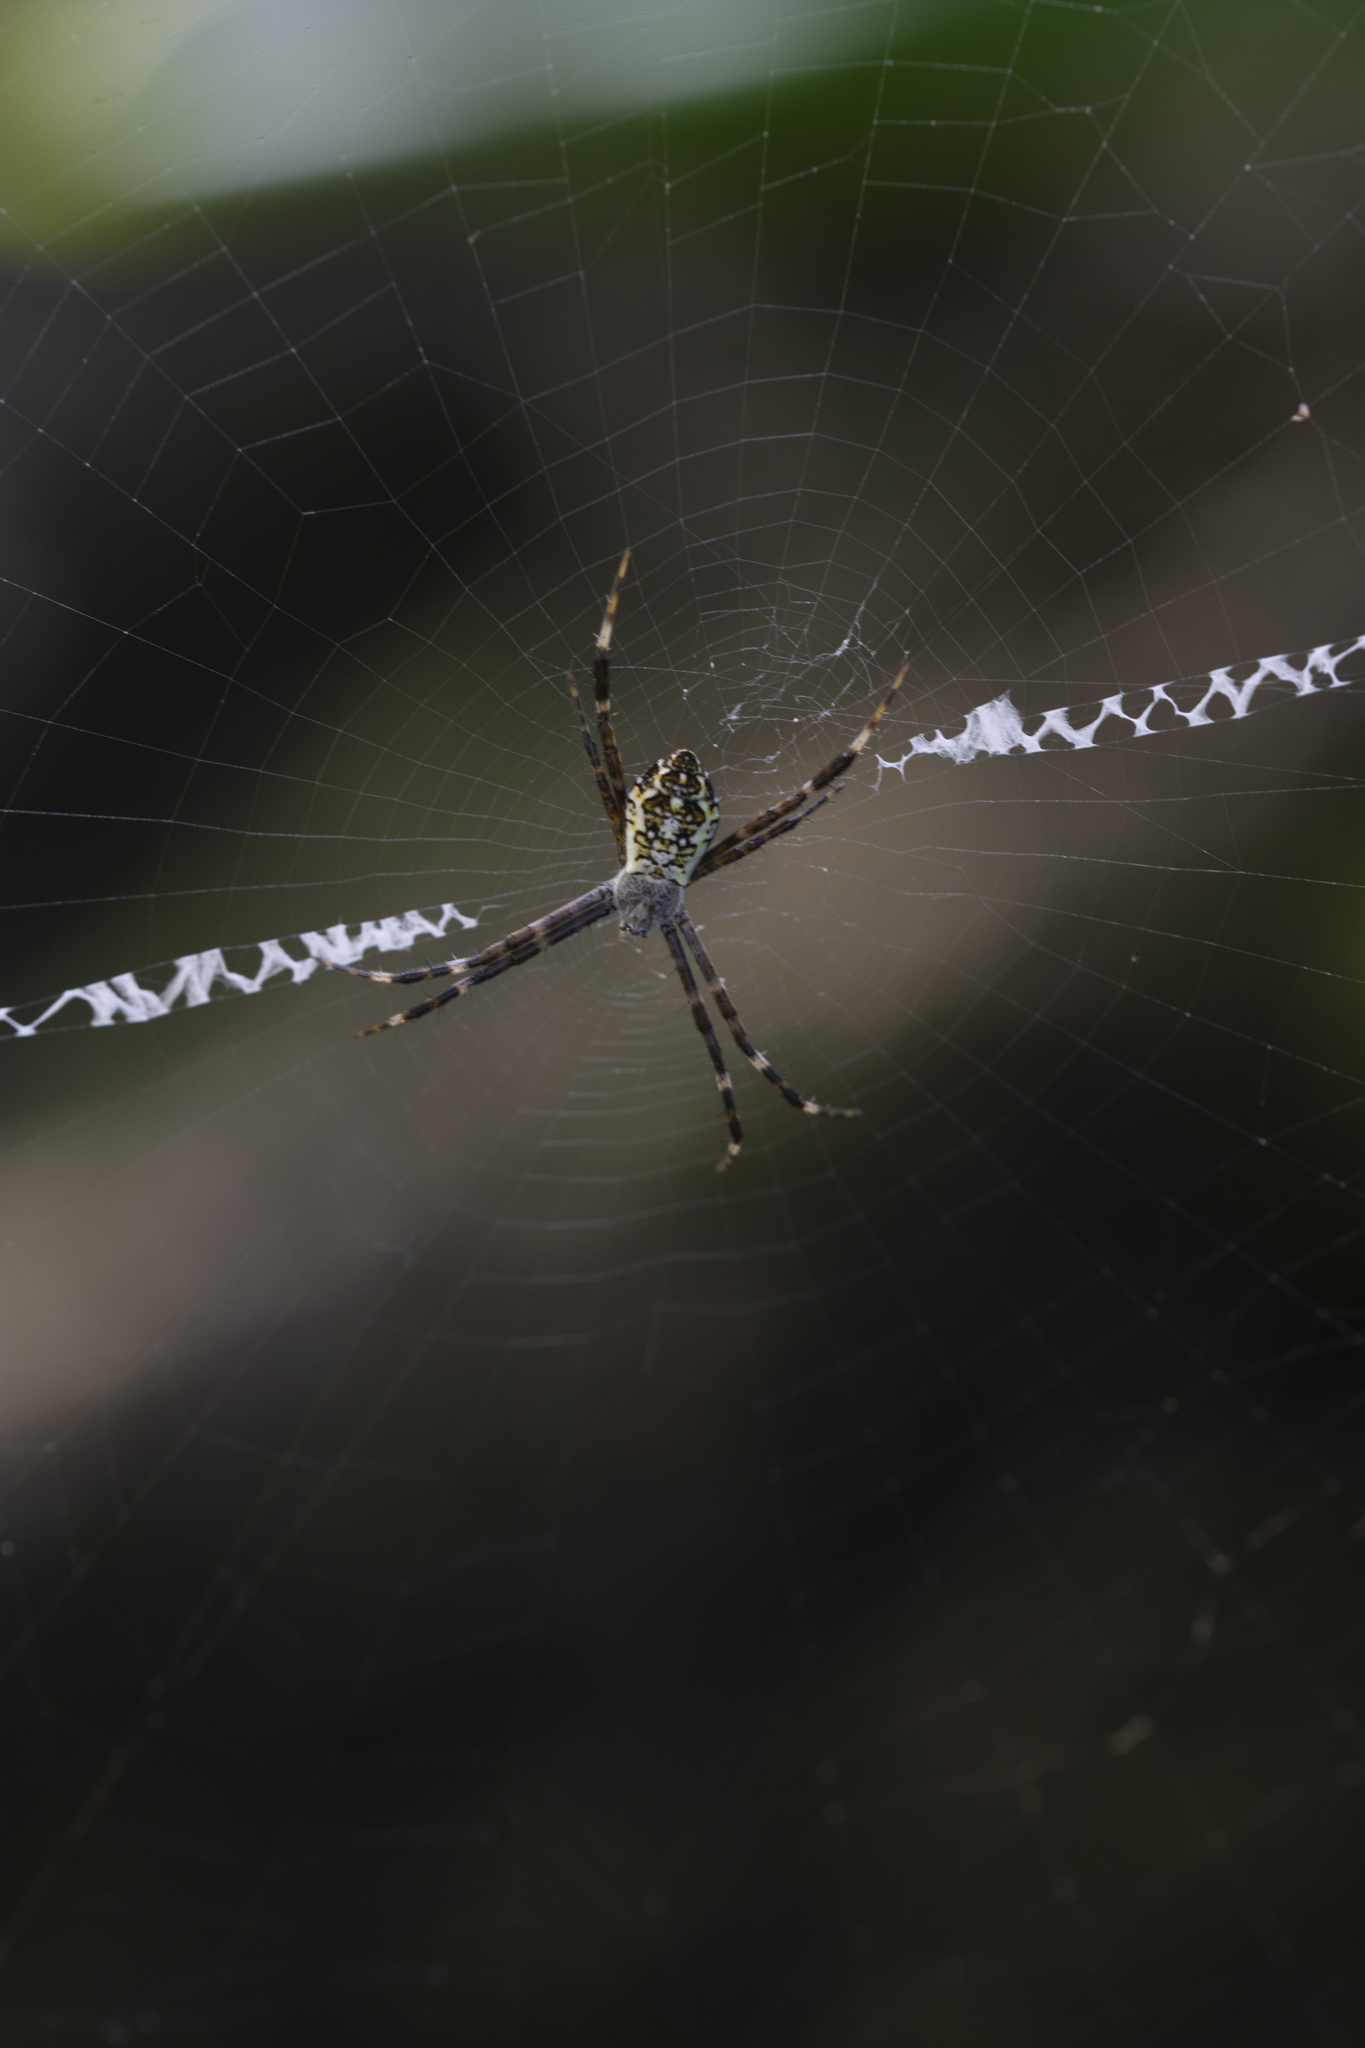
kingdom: Animalia
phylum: Arthropoda
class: Arachnida
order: Araneae
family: Araneidae
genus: Argiope
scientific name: Argiope appensa
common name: Garden spider
